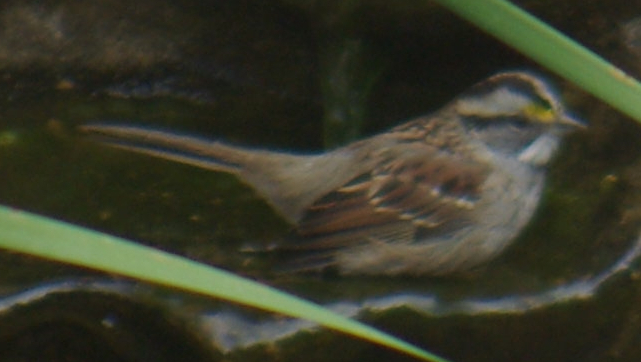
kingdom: Animalia
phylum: Chordata
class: Aves
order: Passeriformes
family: Passerellidae
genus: Zonotrichia
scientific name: Zonotrichia albicollis
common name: White-throated sparrow
